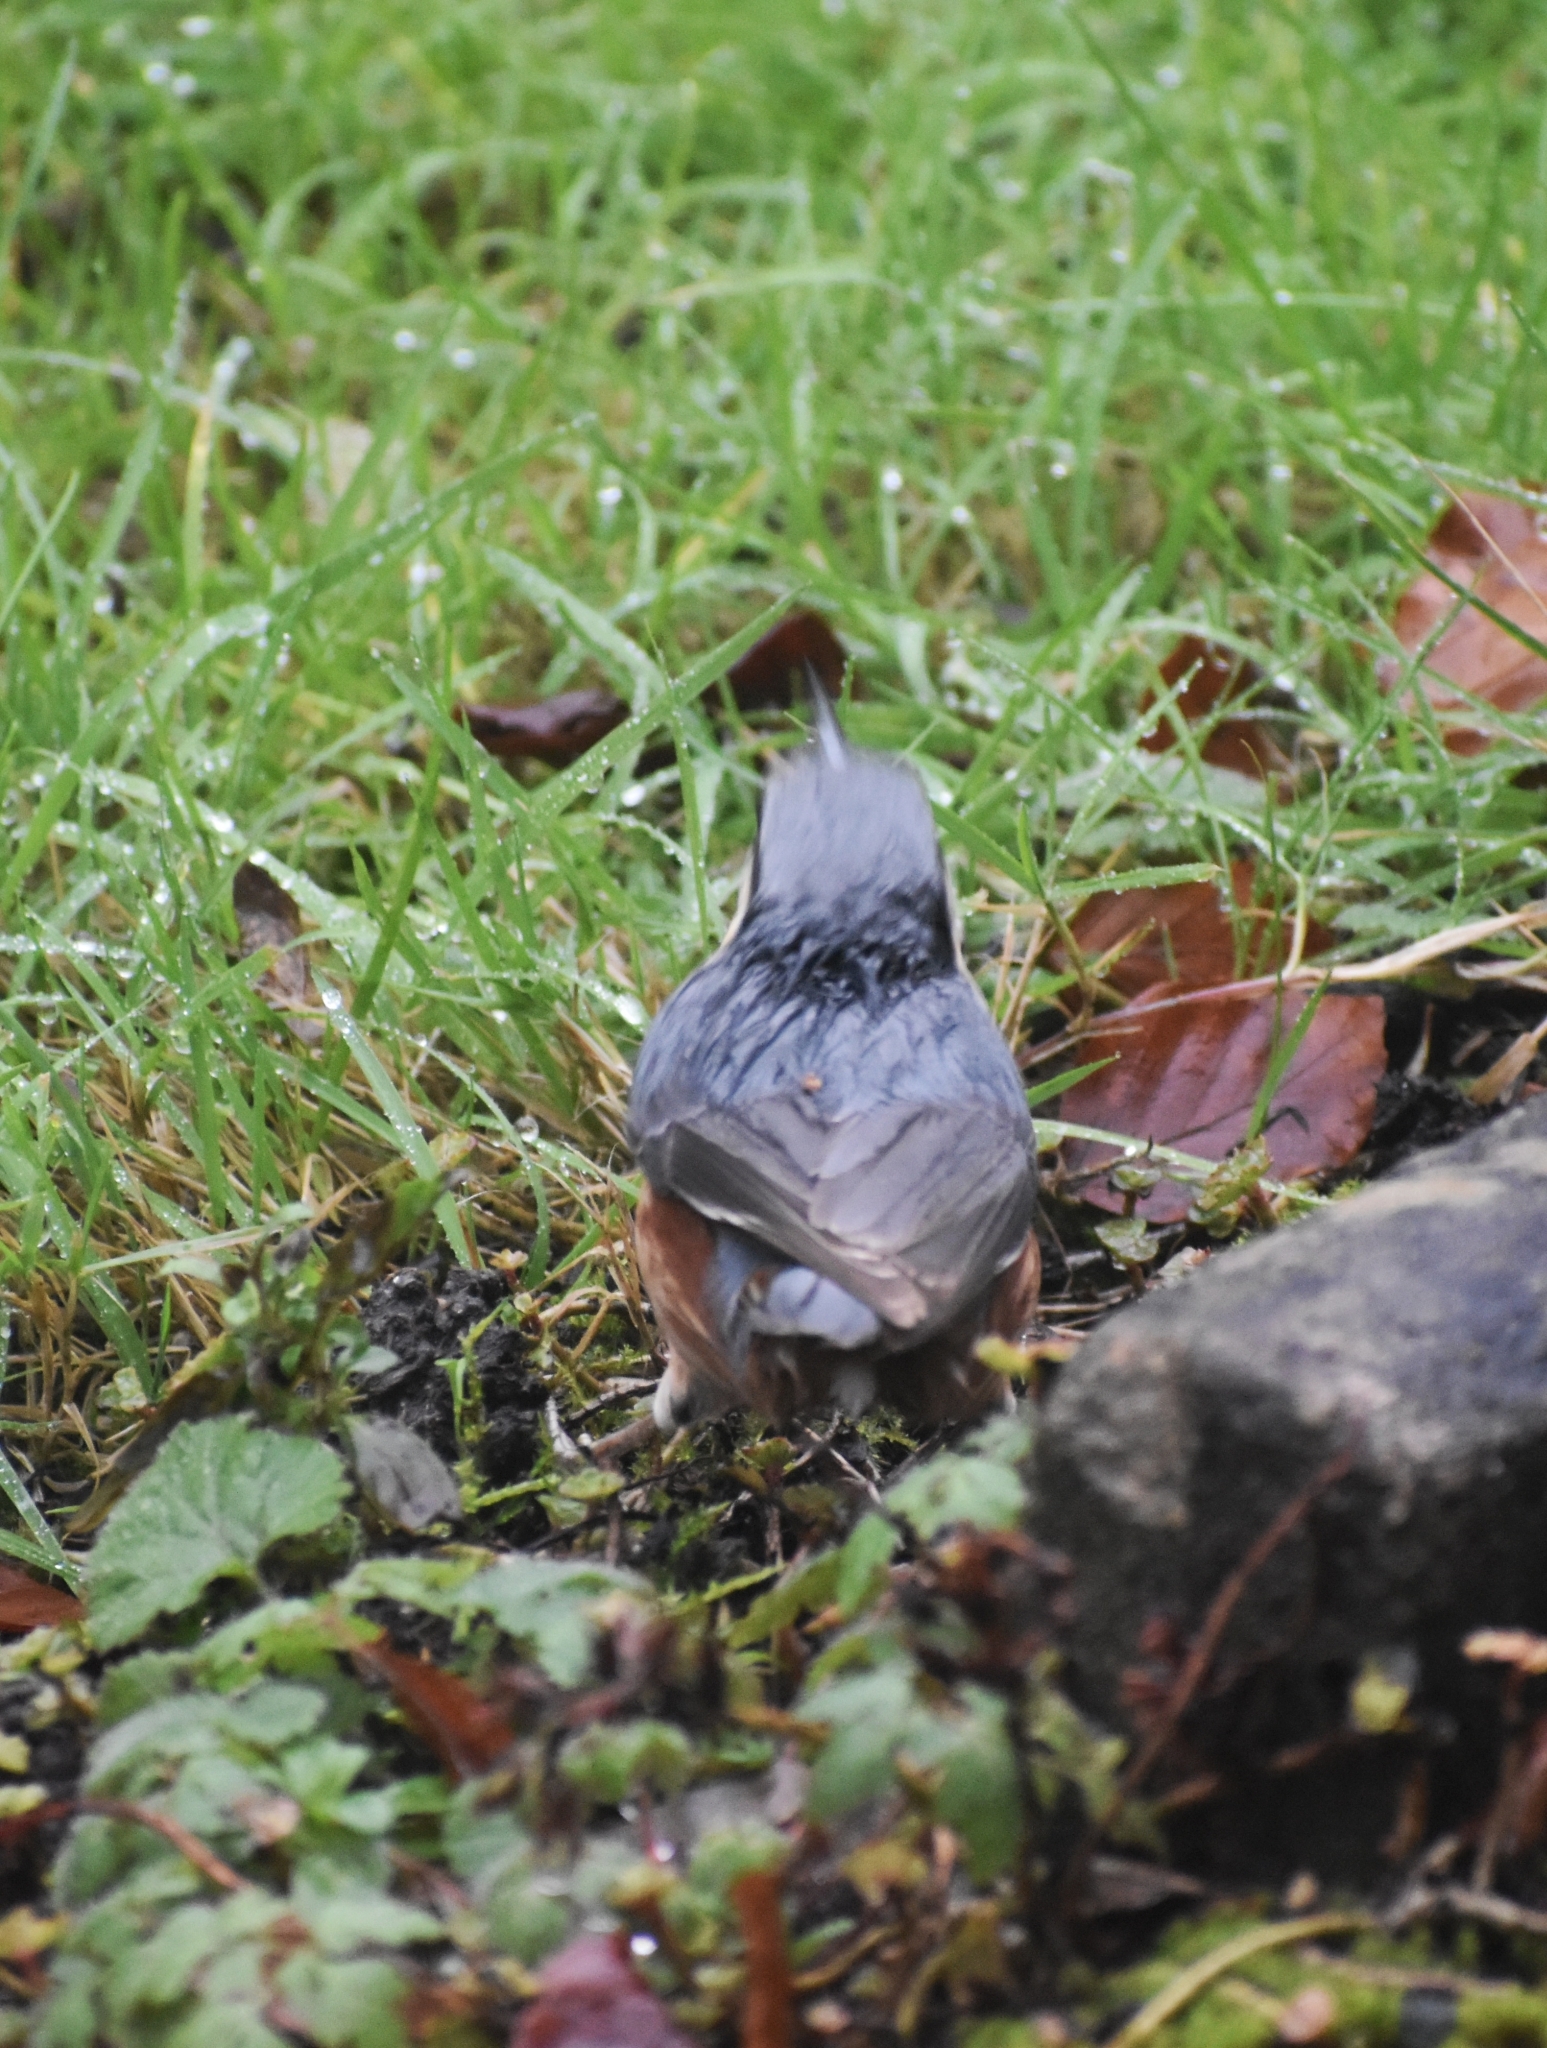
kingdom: Animalia
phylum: Chordata
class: Aves
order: Passeriformes
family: Sittidae
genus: Sitta
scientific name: Sitta europaea
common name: Eurasian nuthatch
